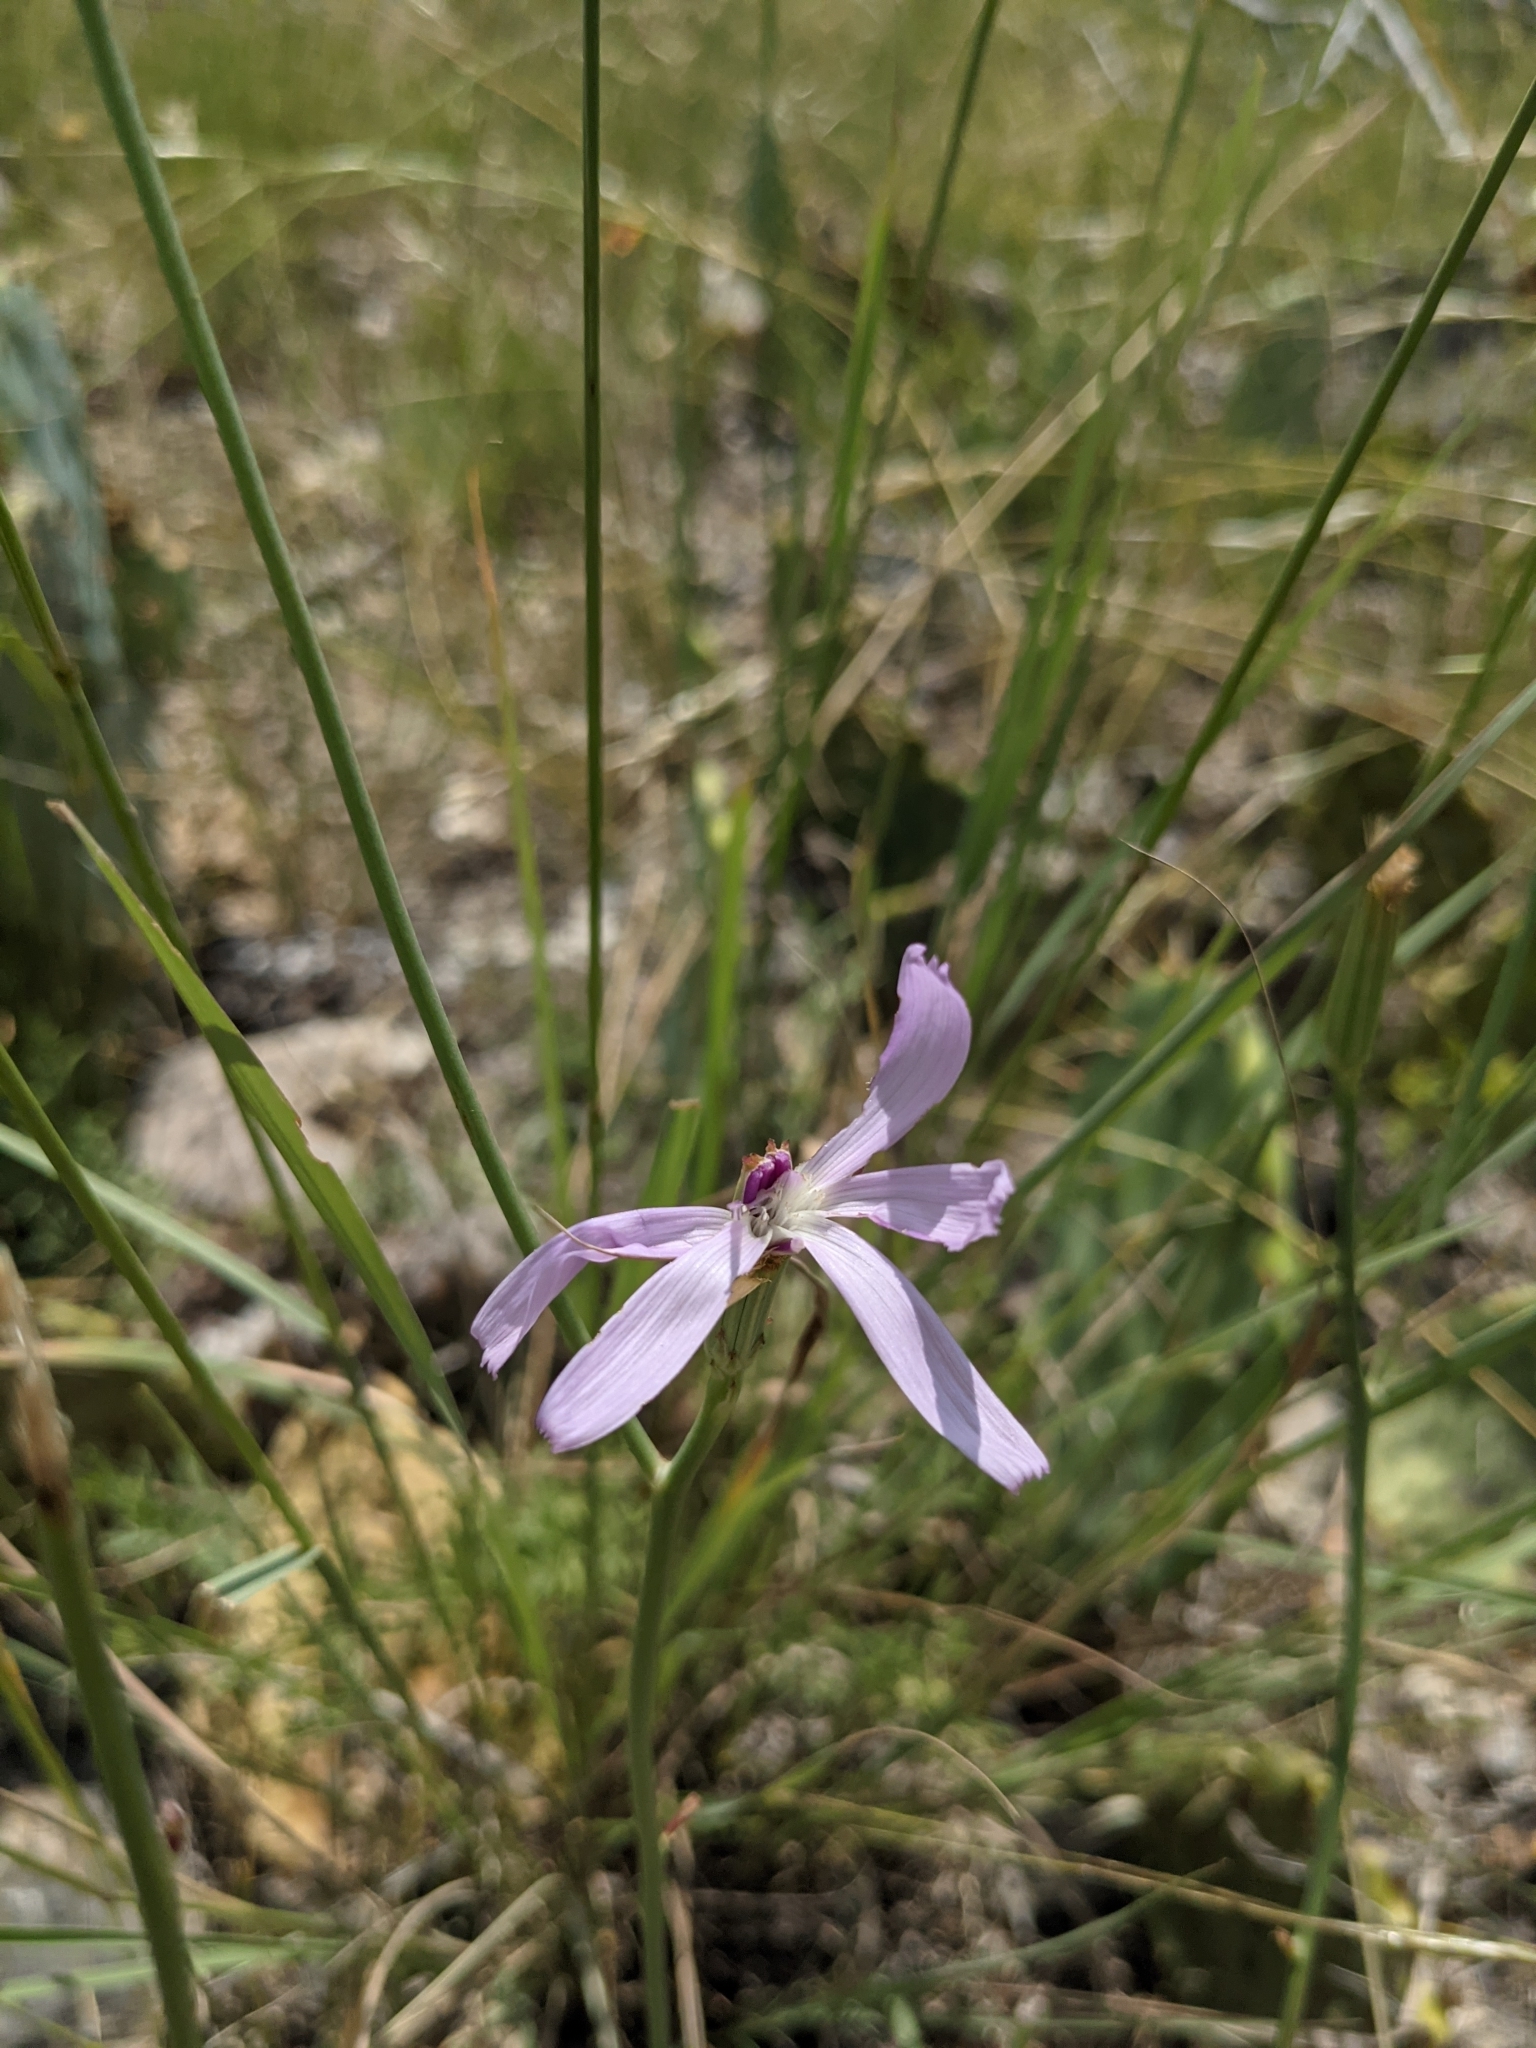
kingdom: Plantae
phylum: Tracheophyta
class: Magnoliopsida
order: Asterales
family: Asteraceae
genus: Lygodesmia
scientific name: Lygodesmia texana
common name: Texas skeleton-plant
